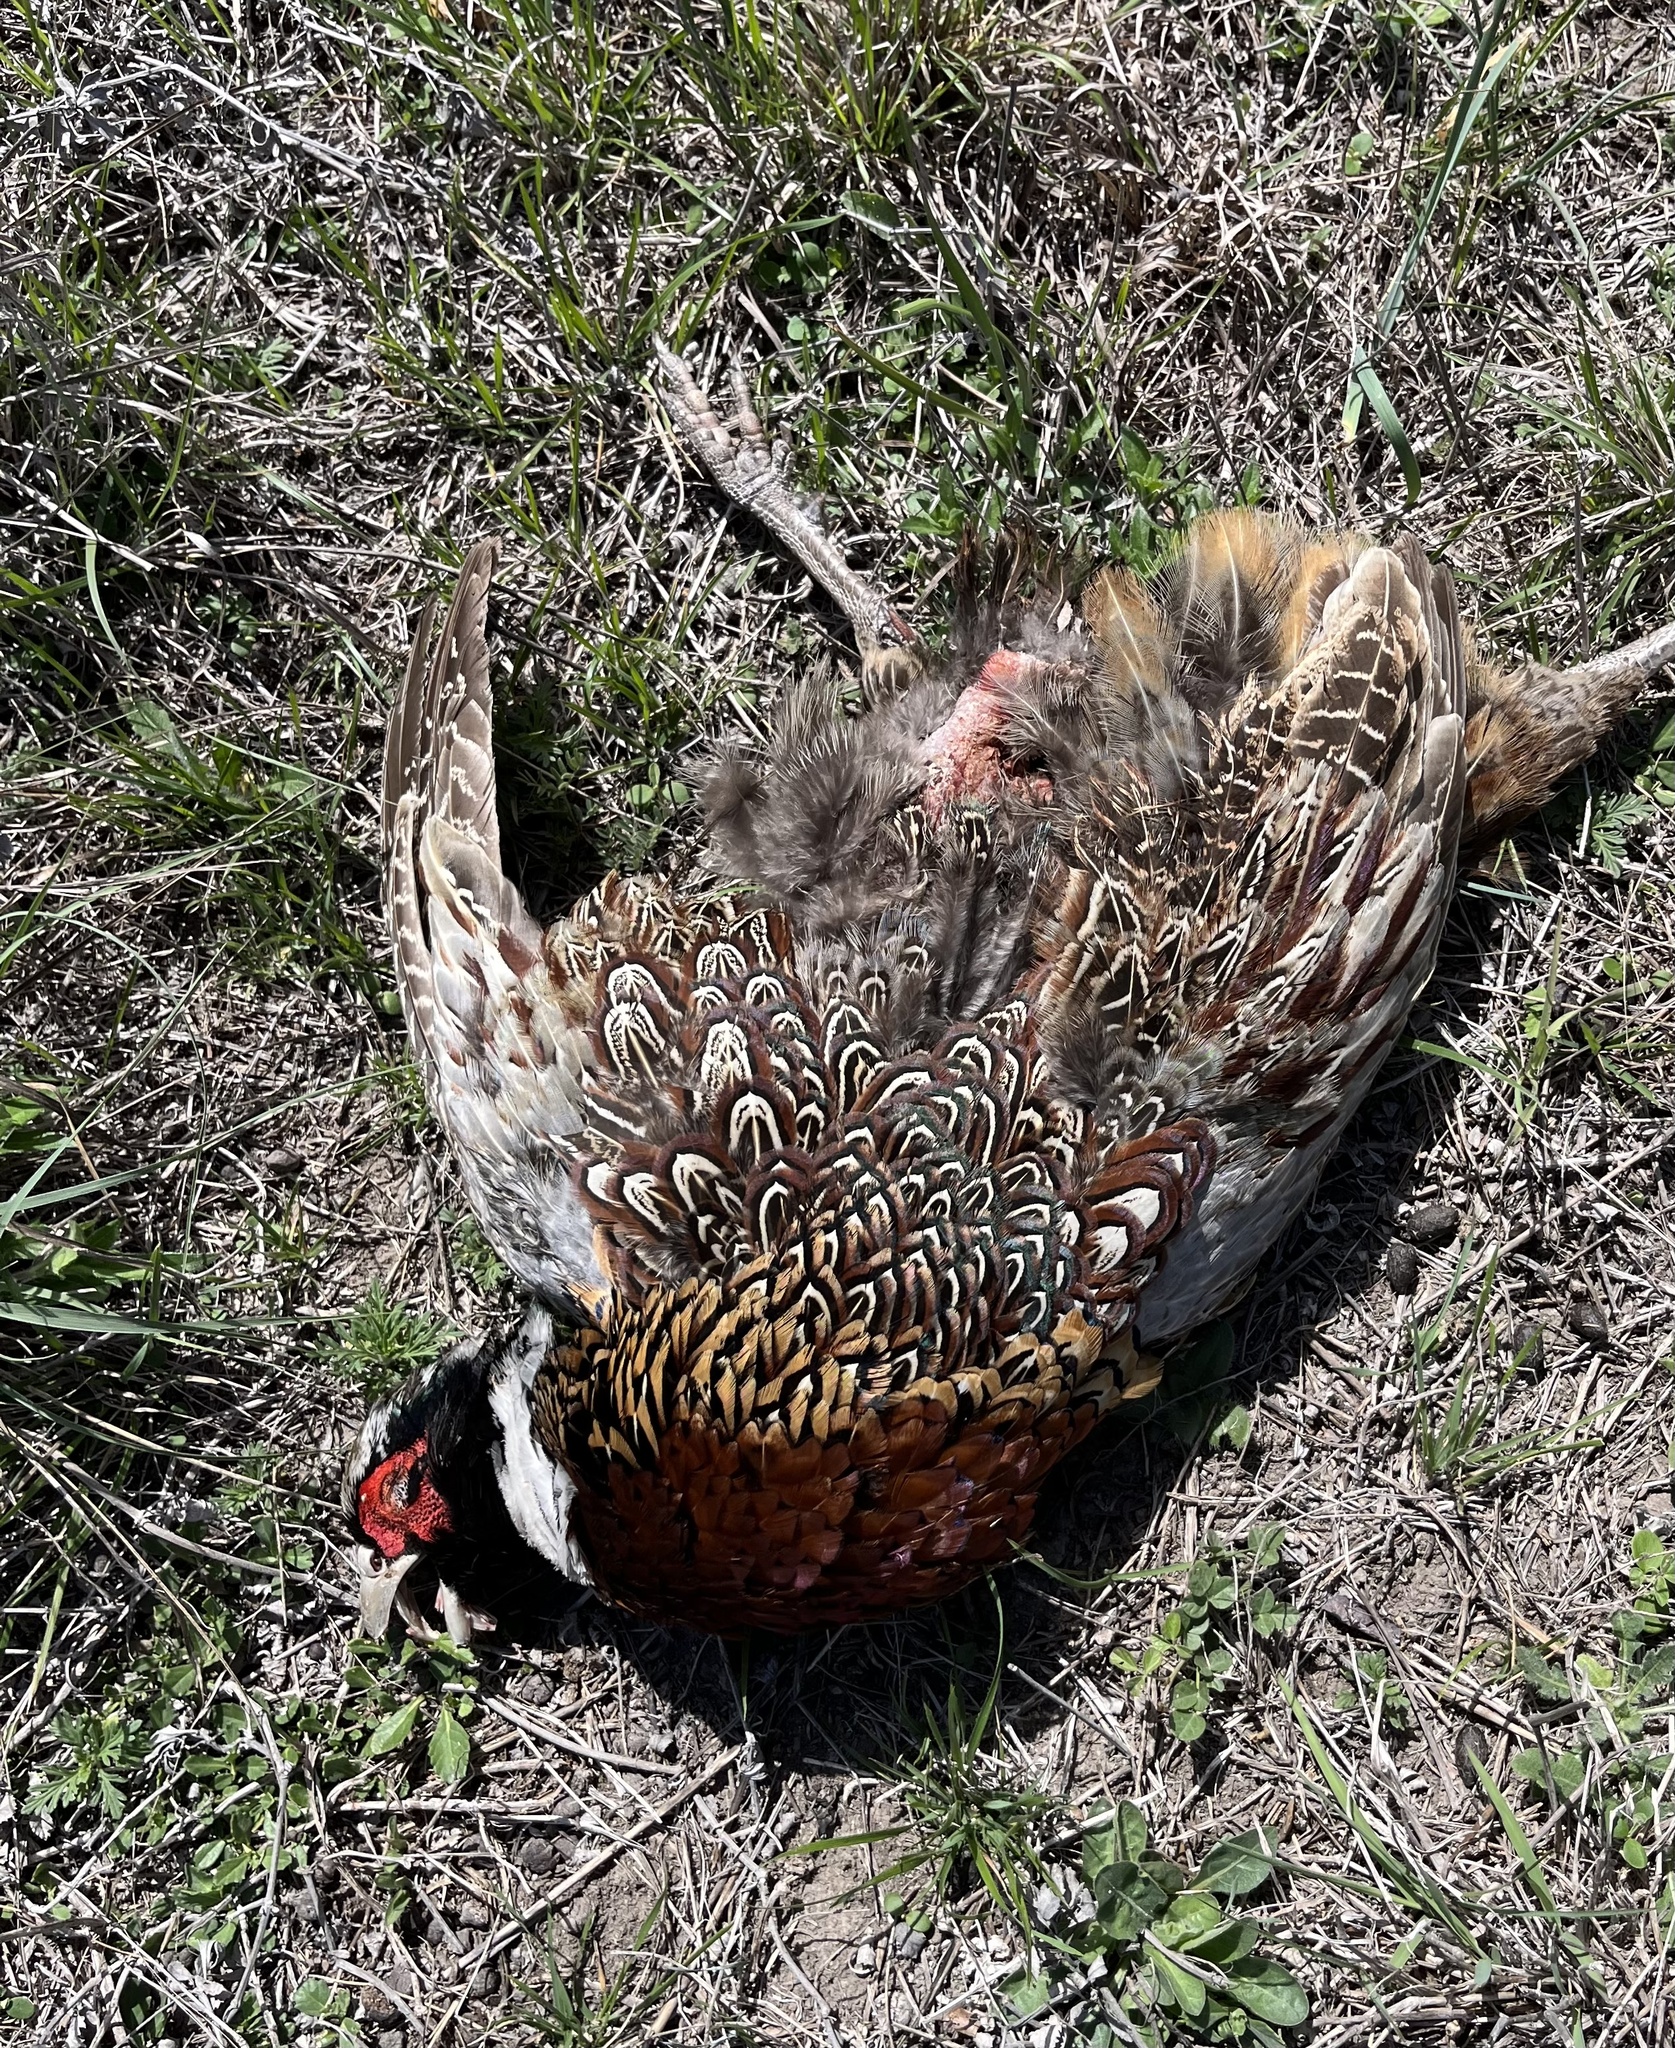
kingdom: Animalia
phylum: Chordata
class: Aves
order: Galliformes
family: Phasianidae
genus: Phasianus
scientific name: Phasianus colchicus
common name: Common pheasant
